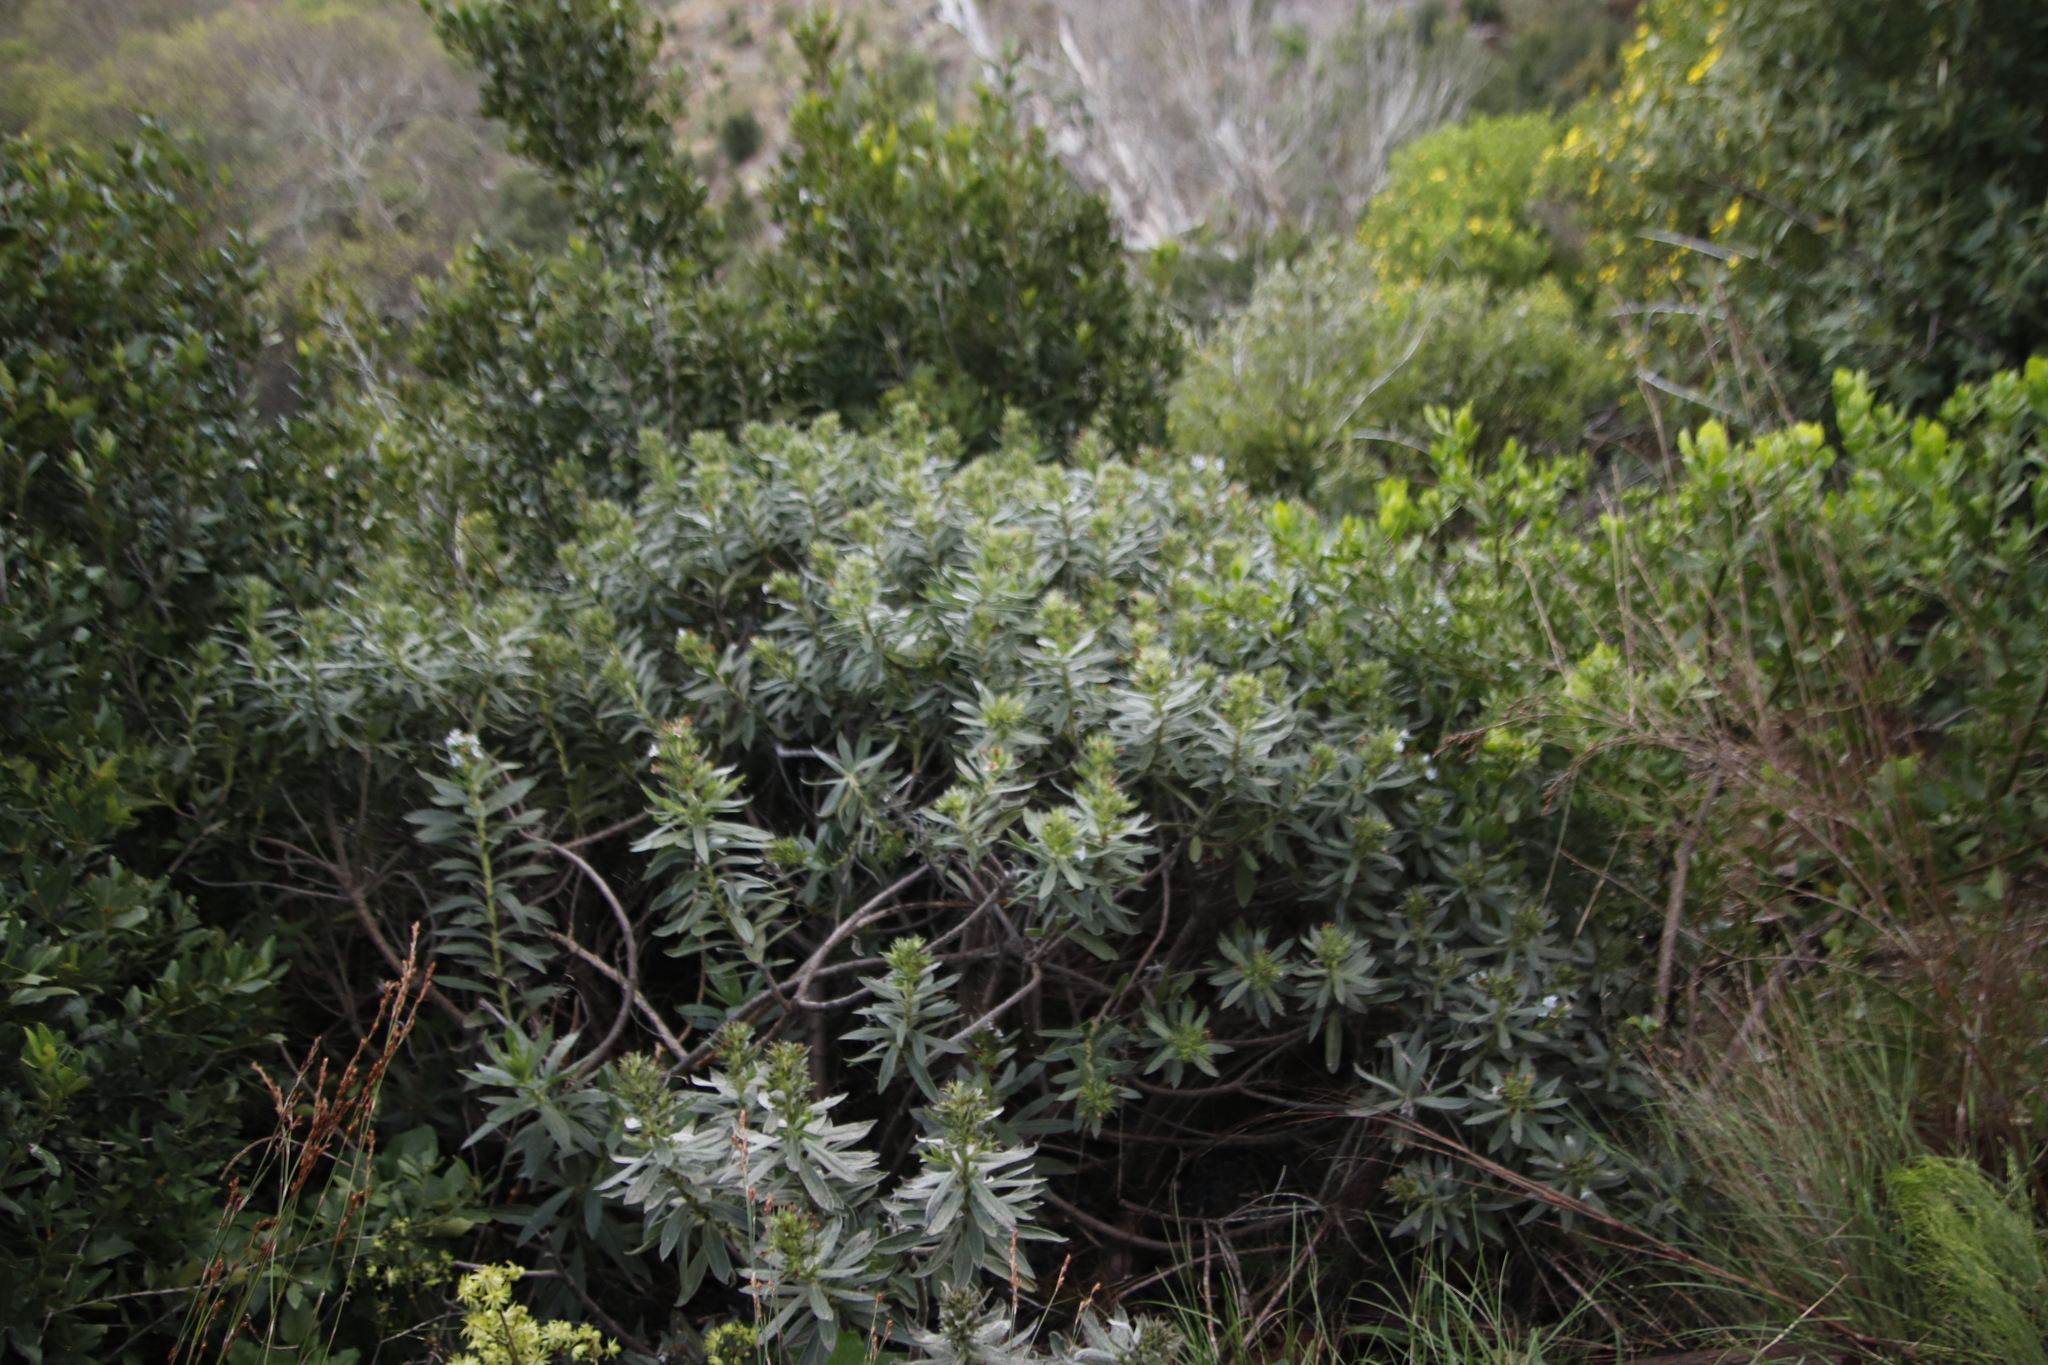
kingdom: Plantae
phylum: Tracheophyta
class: Magnoliopsida
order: Boraginales
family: Boraginaceae
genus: Lobostemon
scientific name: Lobostemon montanus
